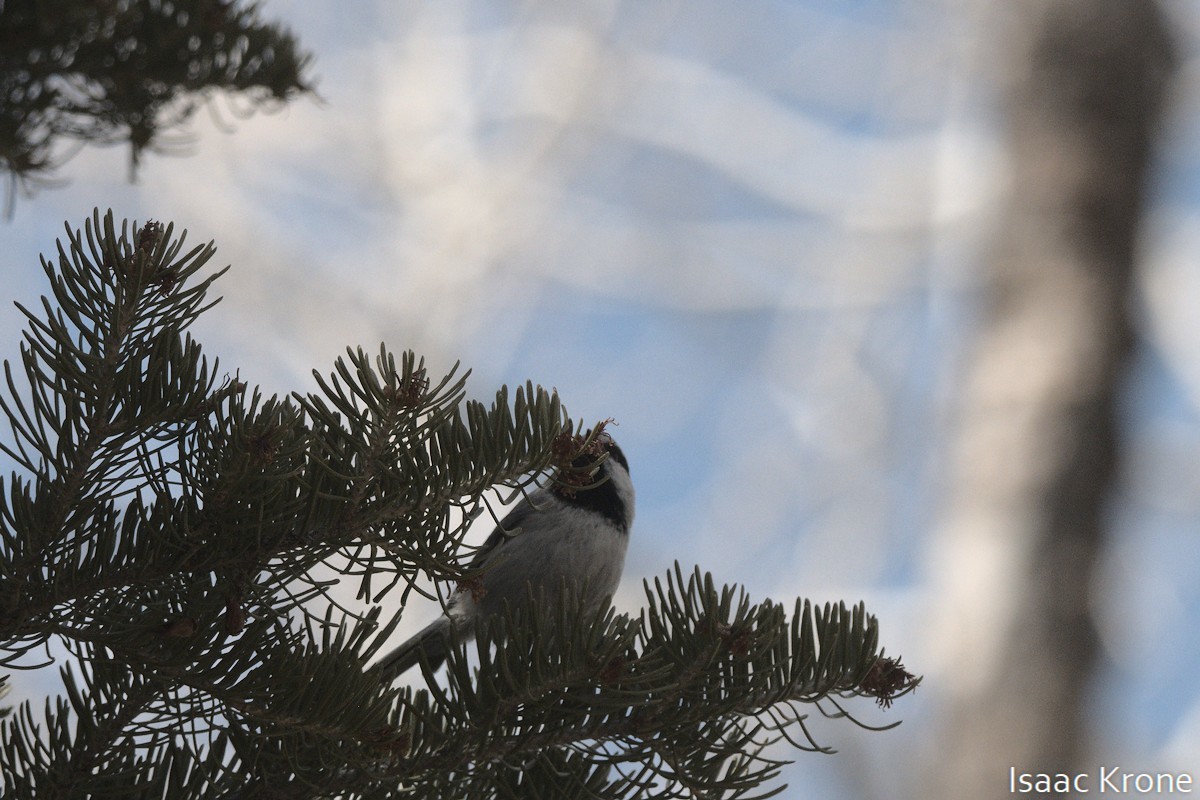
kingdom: Animalia
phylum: Chordata
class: Aves
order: Passeriformes
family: Paridae
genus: Poecile
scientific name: Poecile gambeli
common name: Mountain chickadee
